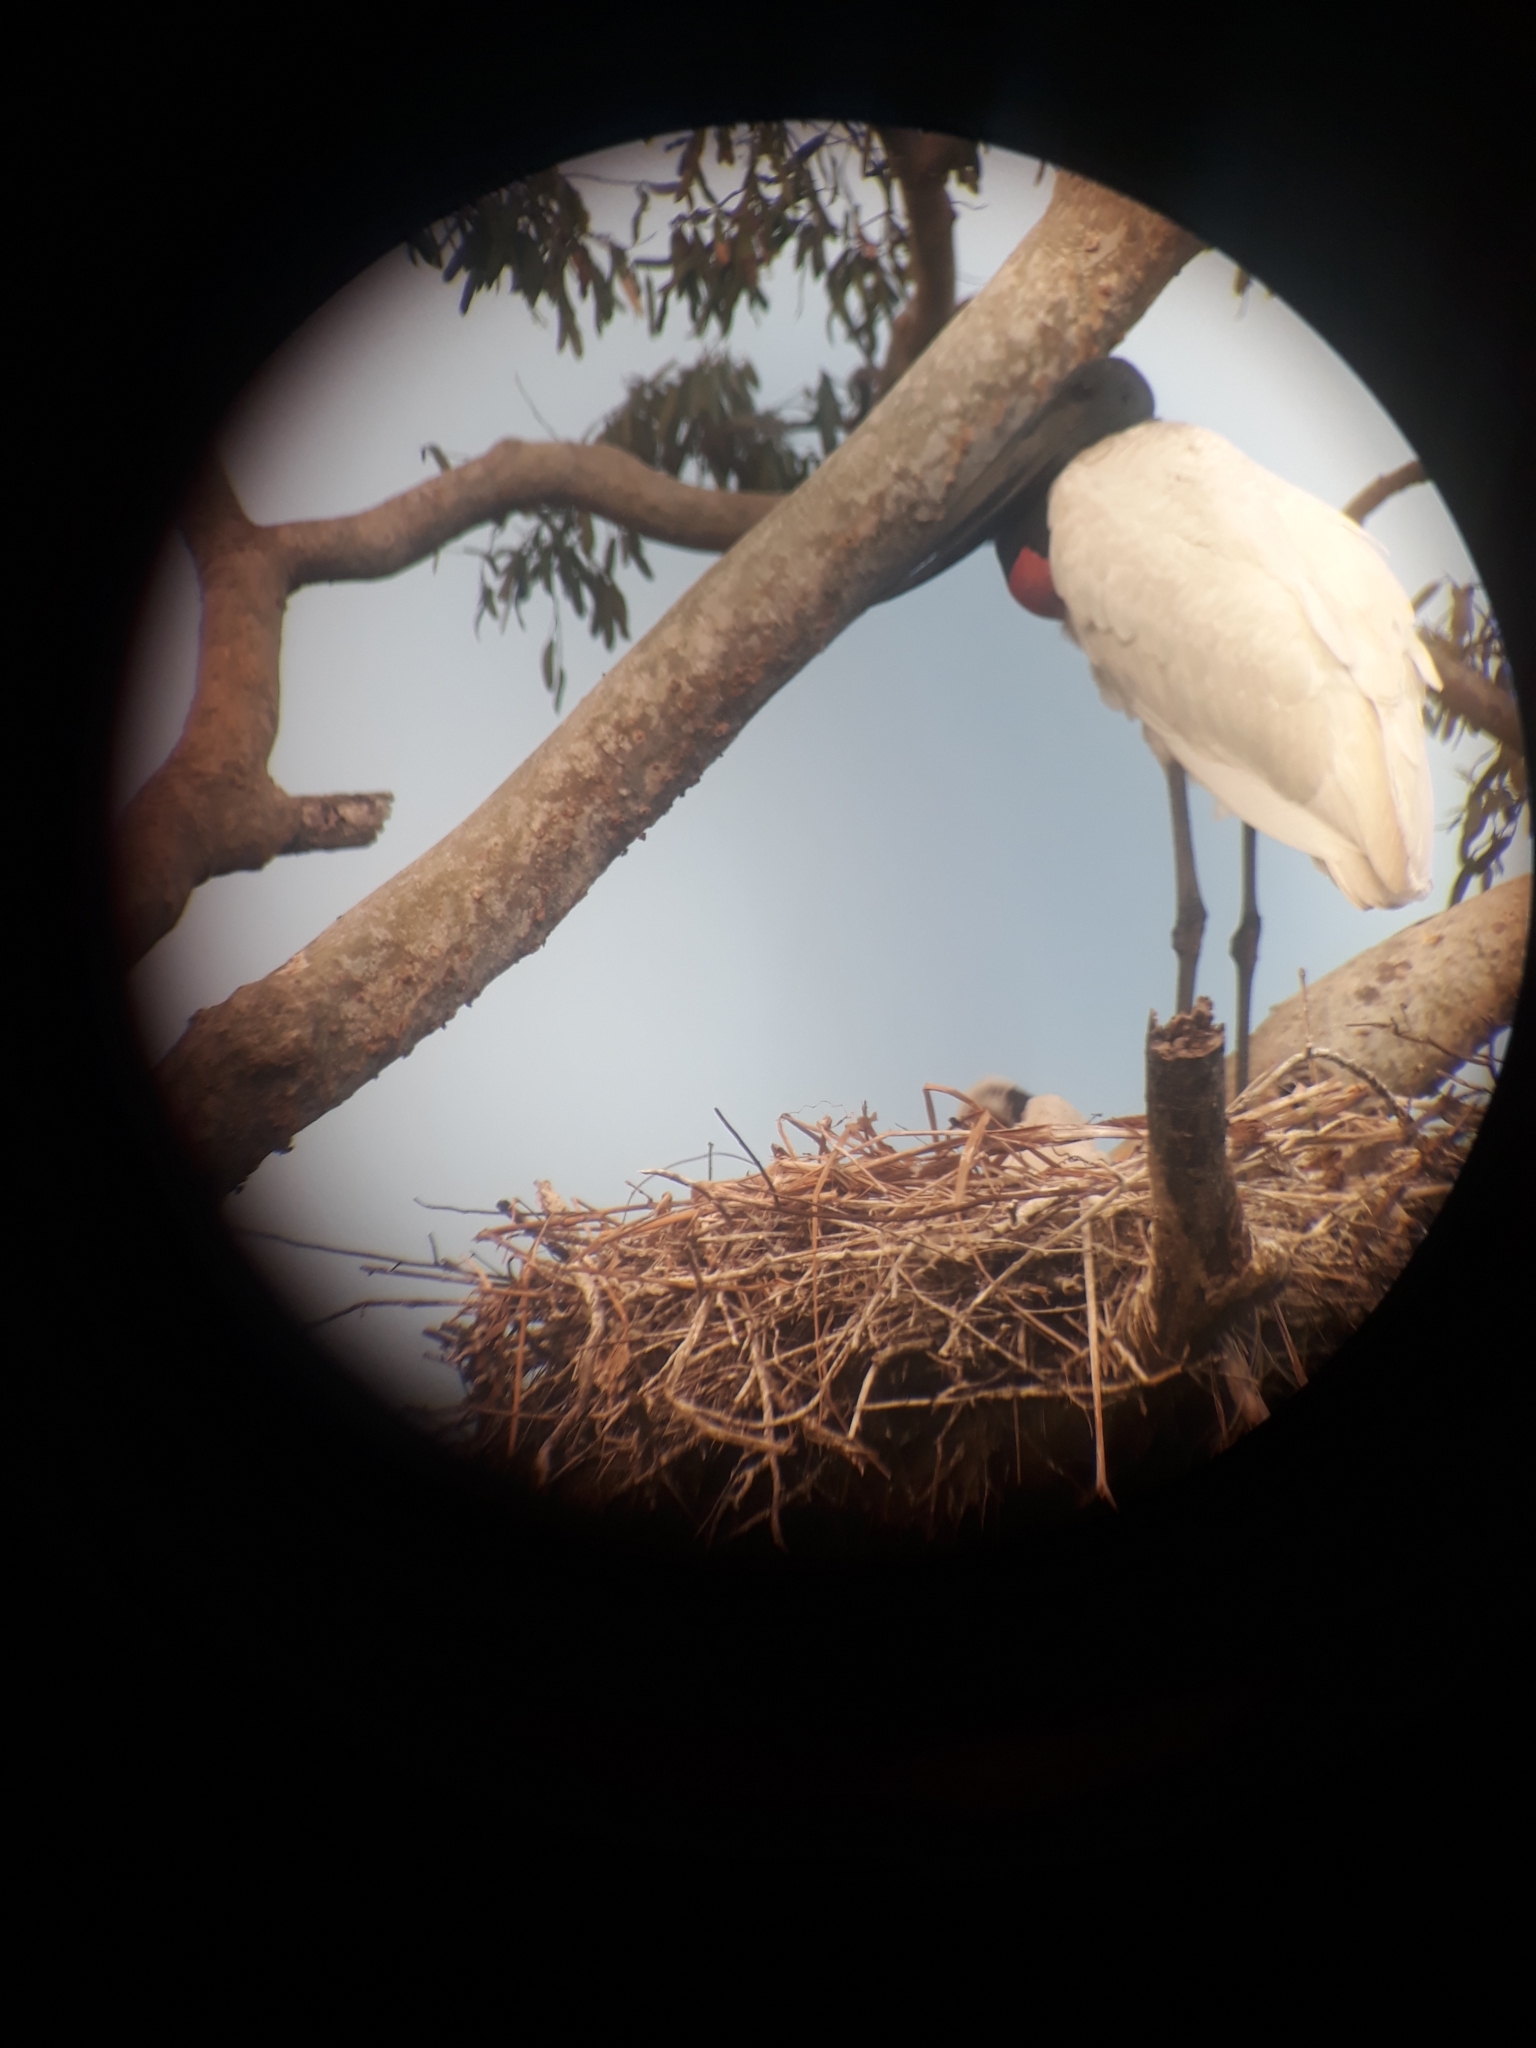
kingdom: Animalia
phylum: Chordata
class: Aves
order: Ciconiiformes
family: Ciconiidae
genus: Jabiru
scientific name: Jabiru mycteria
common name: Jabiru
